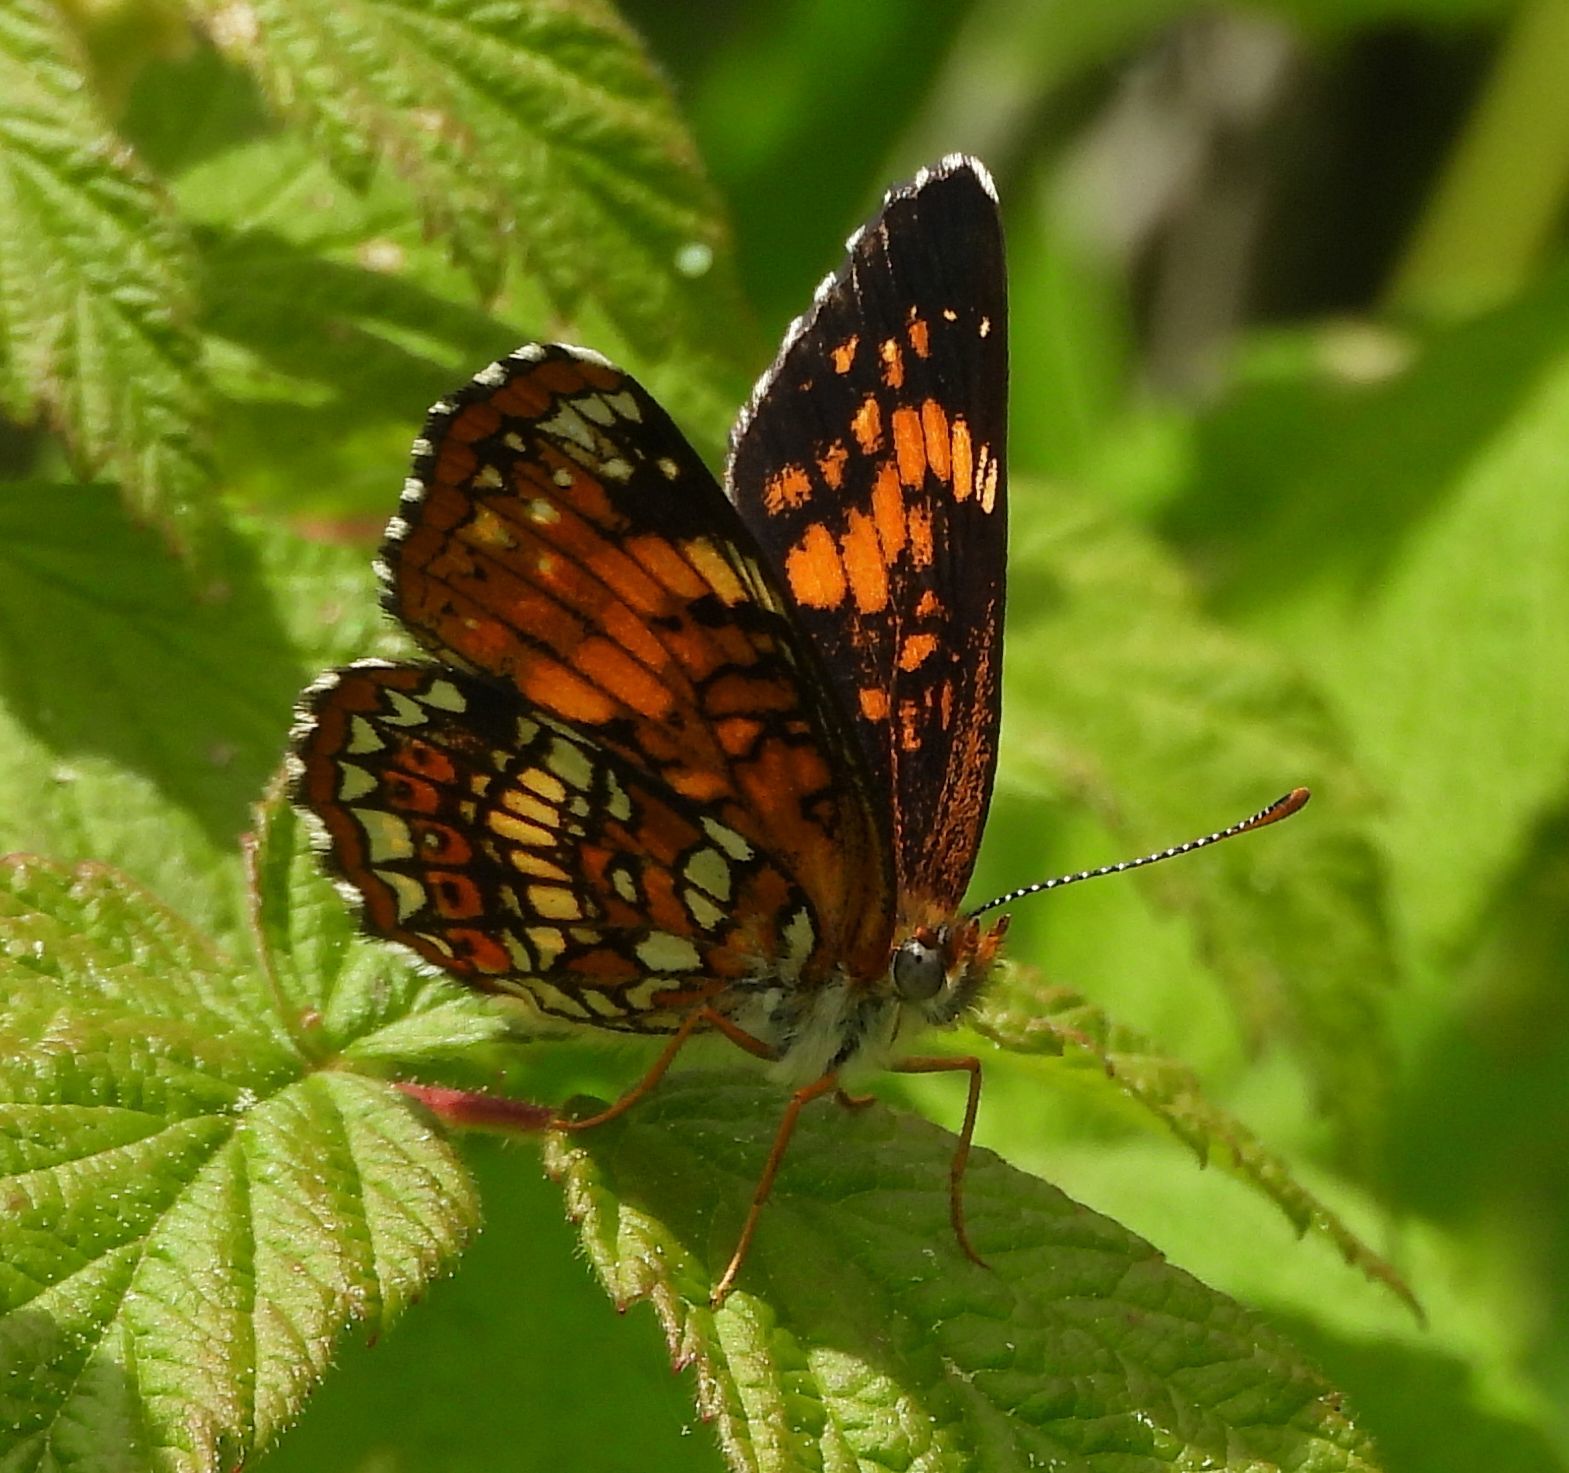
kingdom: Animalia
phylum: Arthropoda
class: Insecta
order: Lepidoptera
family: Nymphalidae
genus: Chlosyne
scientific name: Chlosyne harrisii
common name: Harris's checkerspot
